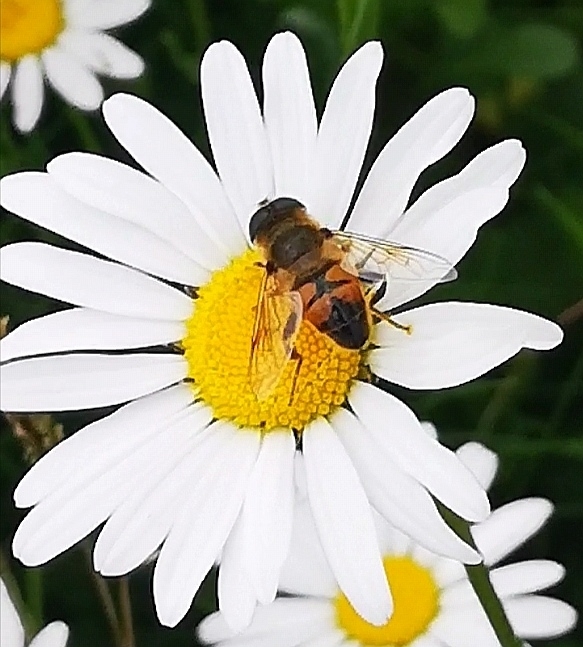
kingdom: Animalia
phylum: Arthropoda
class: Insecta
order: Diptera
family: Syrphidae
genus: Eristalis
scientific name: Eristalis tenax
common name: Drone fly
